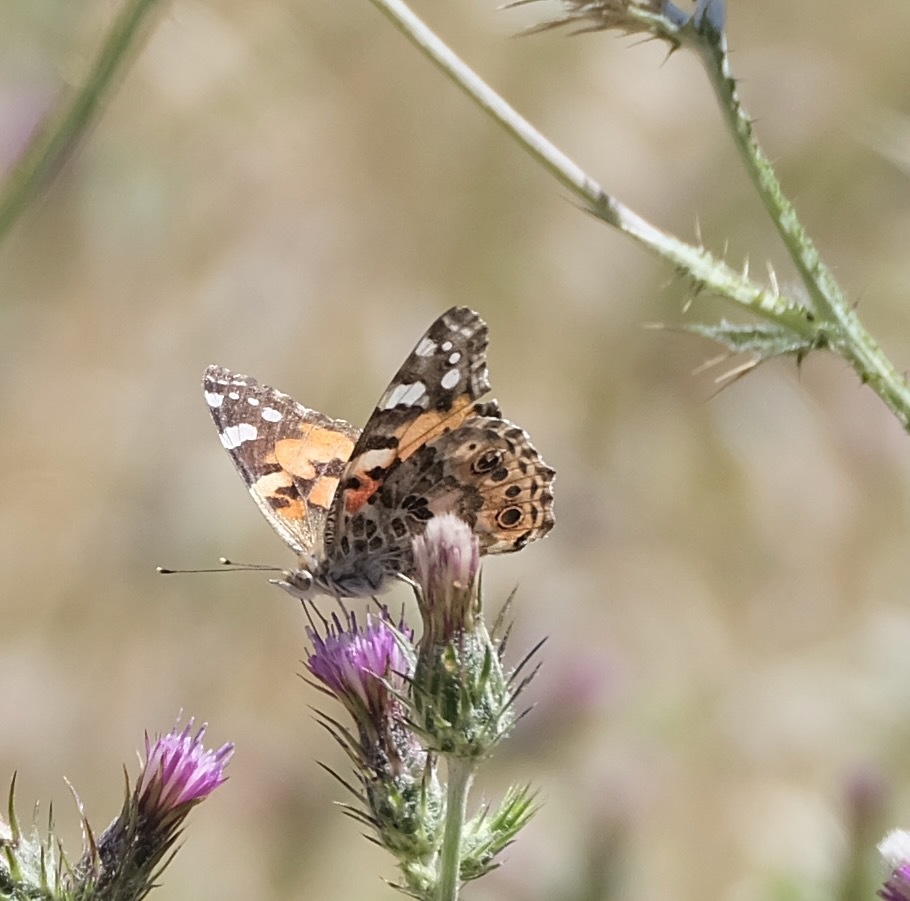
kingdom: Animalia
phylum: Arthropoda
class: Insecta
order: Lepidoptera
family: Nymphalidae
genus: Vanessa
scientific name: Vanessa cardui
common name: Painted lady
